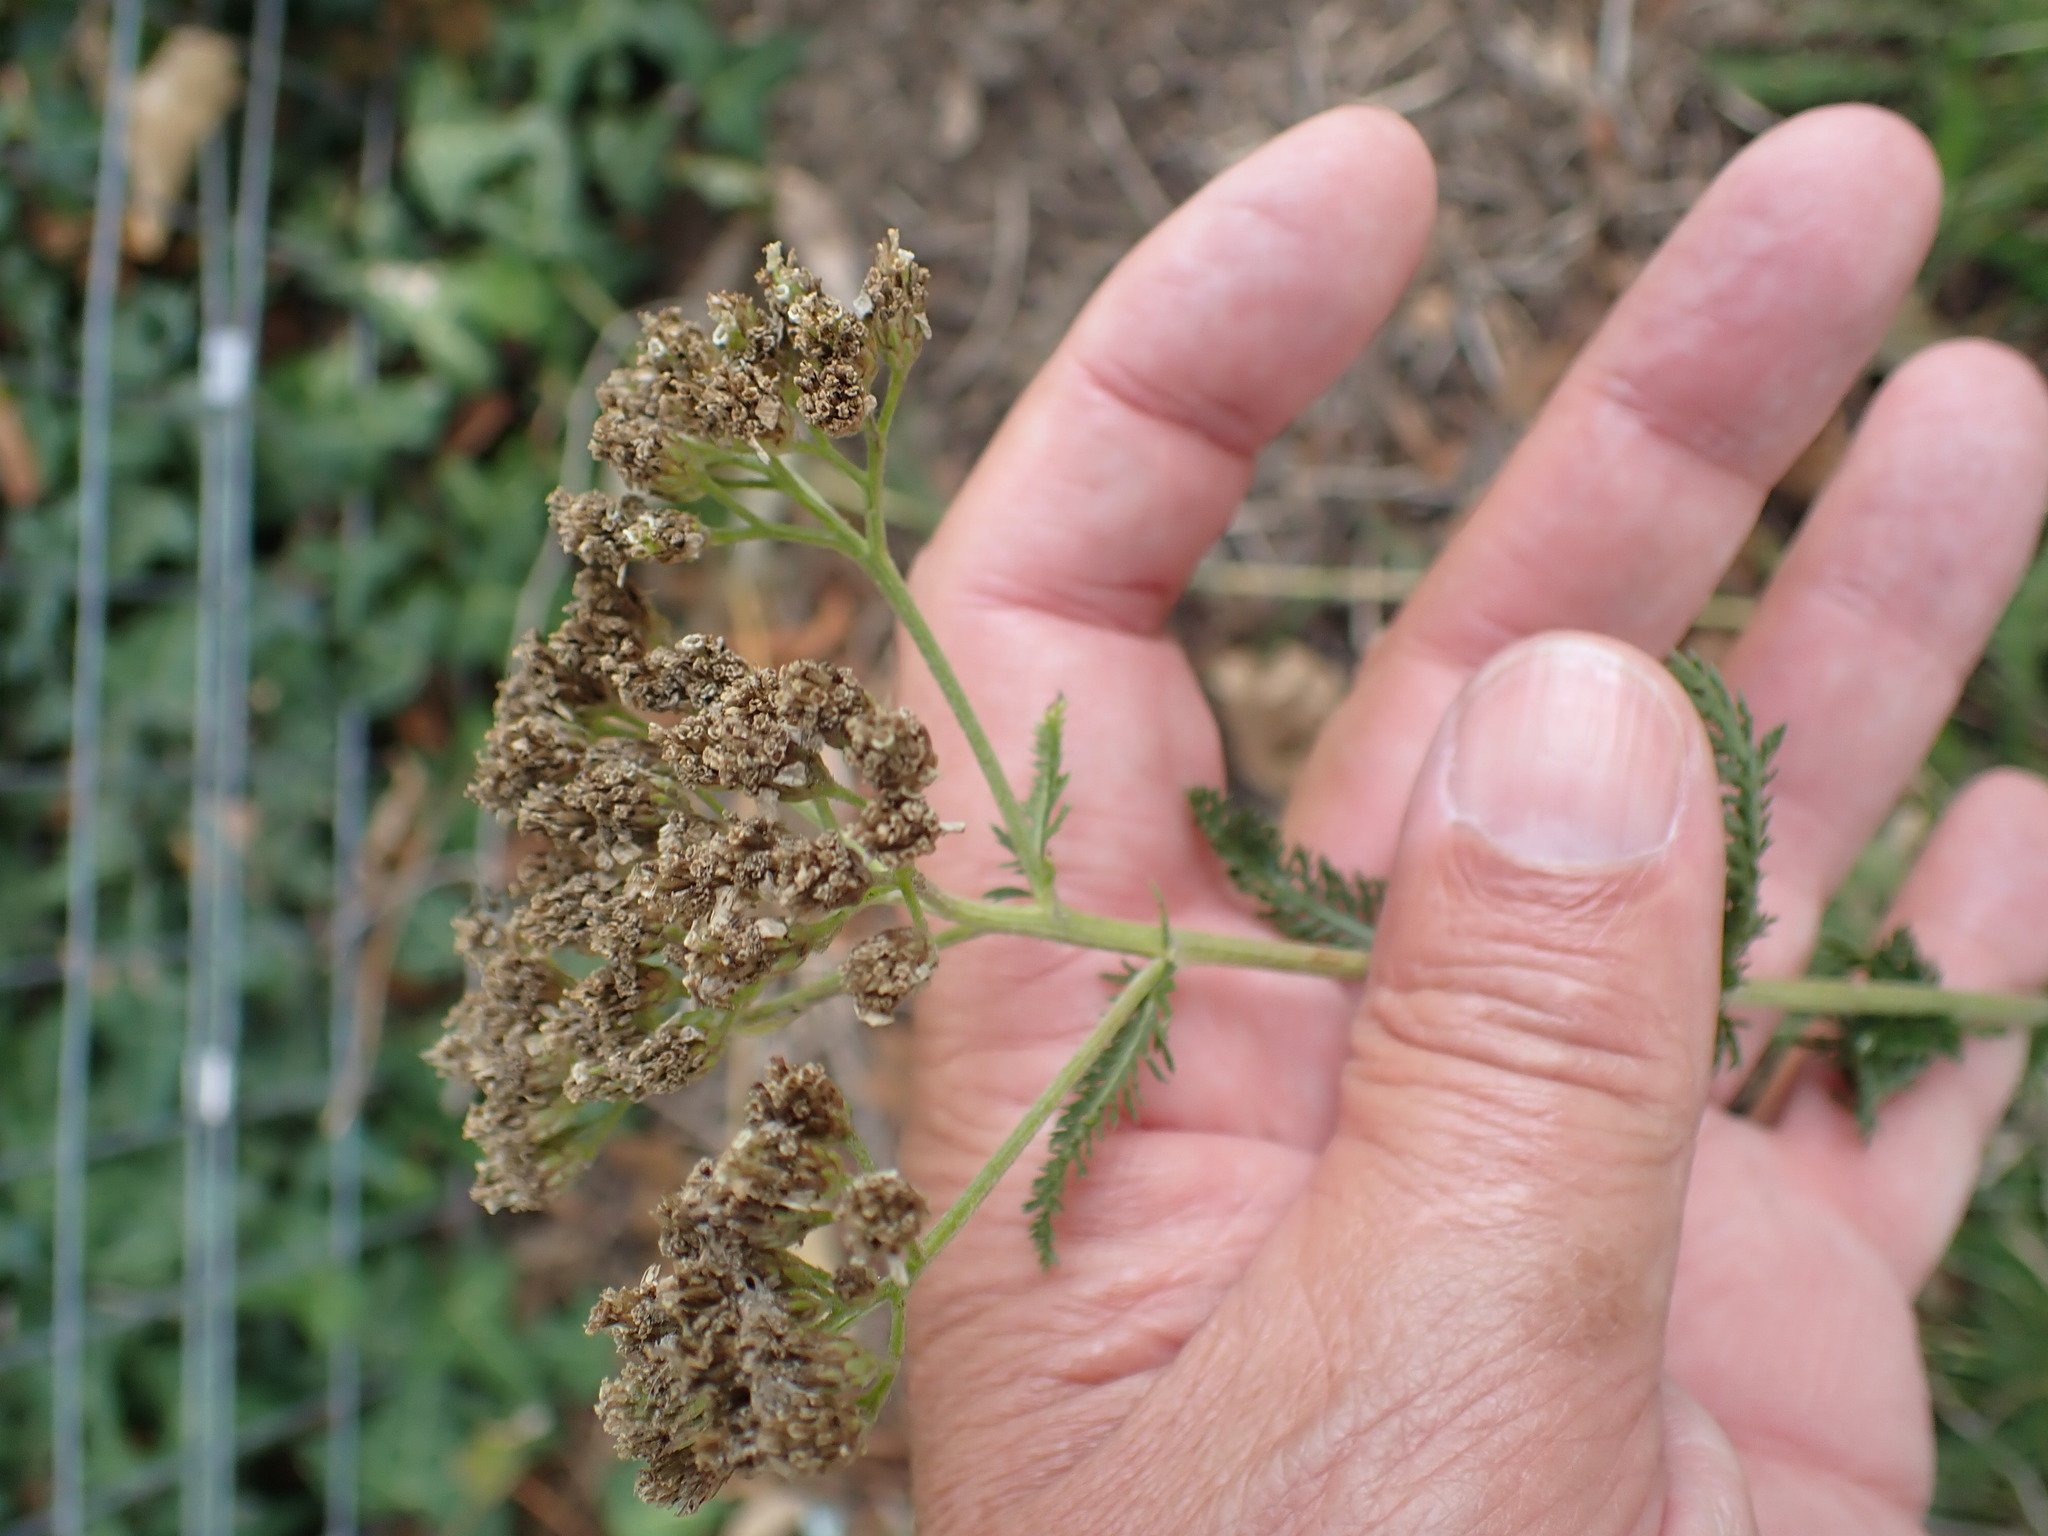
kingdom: Plantae
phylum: Tracheophyta
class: Magnoliopsida
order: Asterales
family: Asteraceae
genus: Achillea
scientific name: Achillea millefolium
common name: Yarrow
